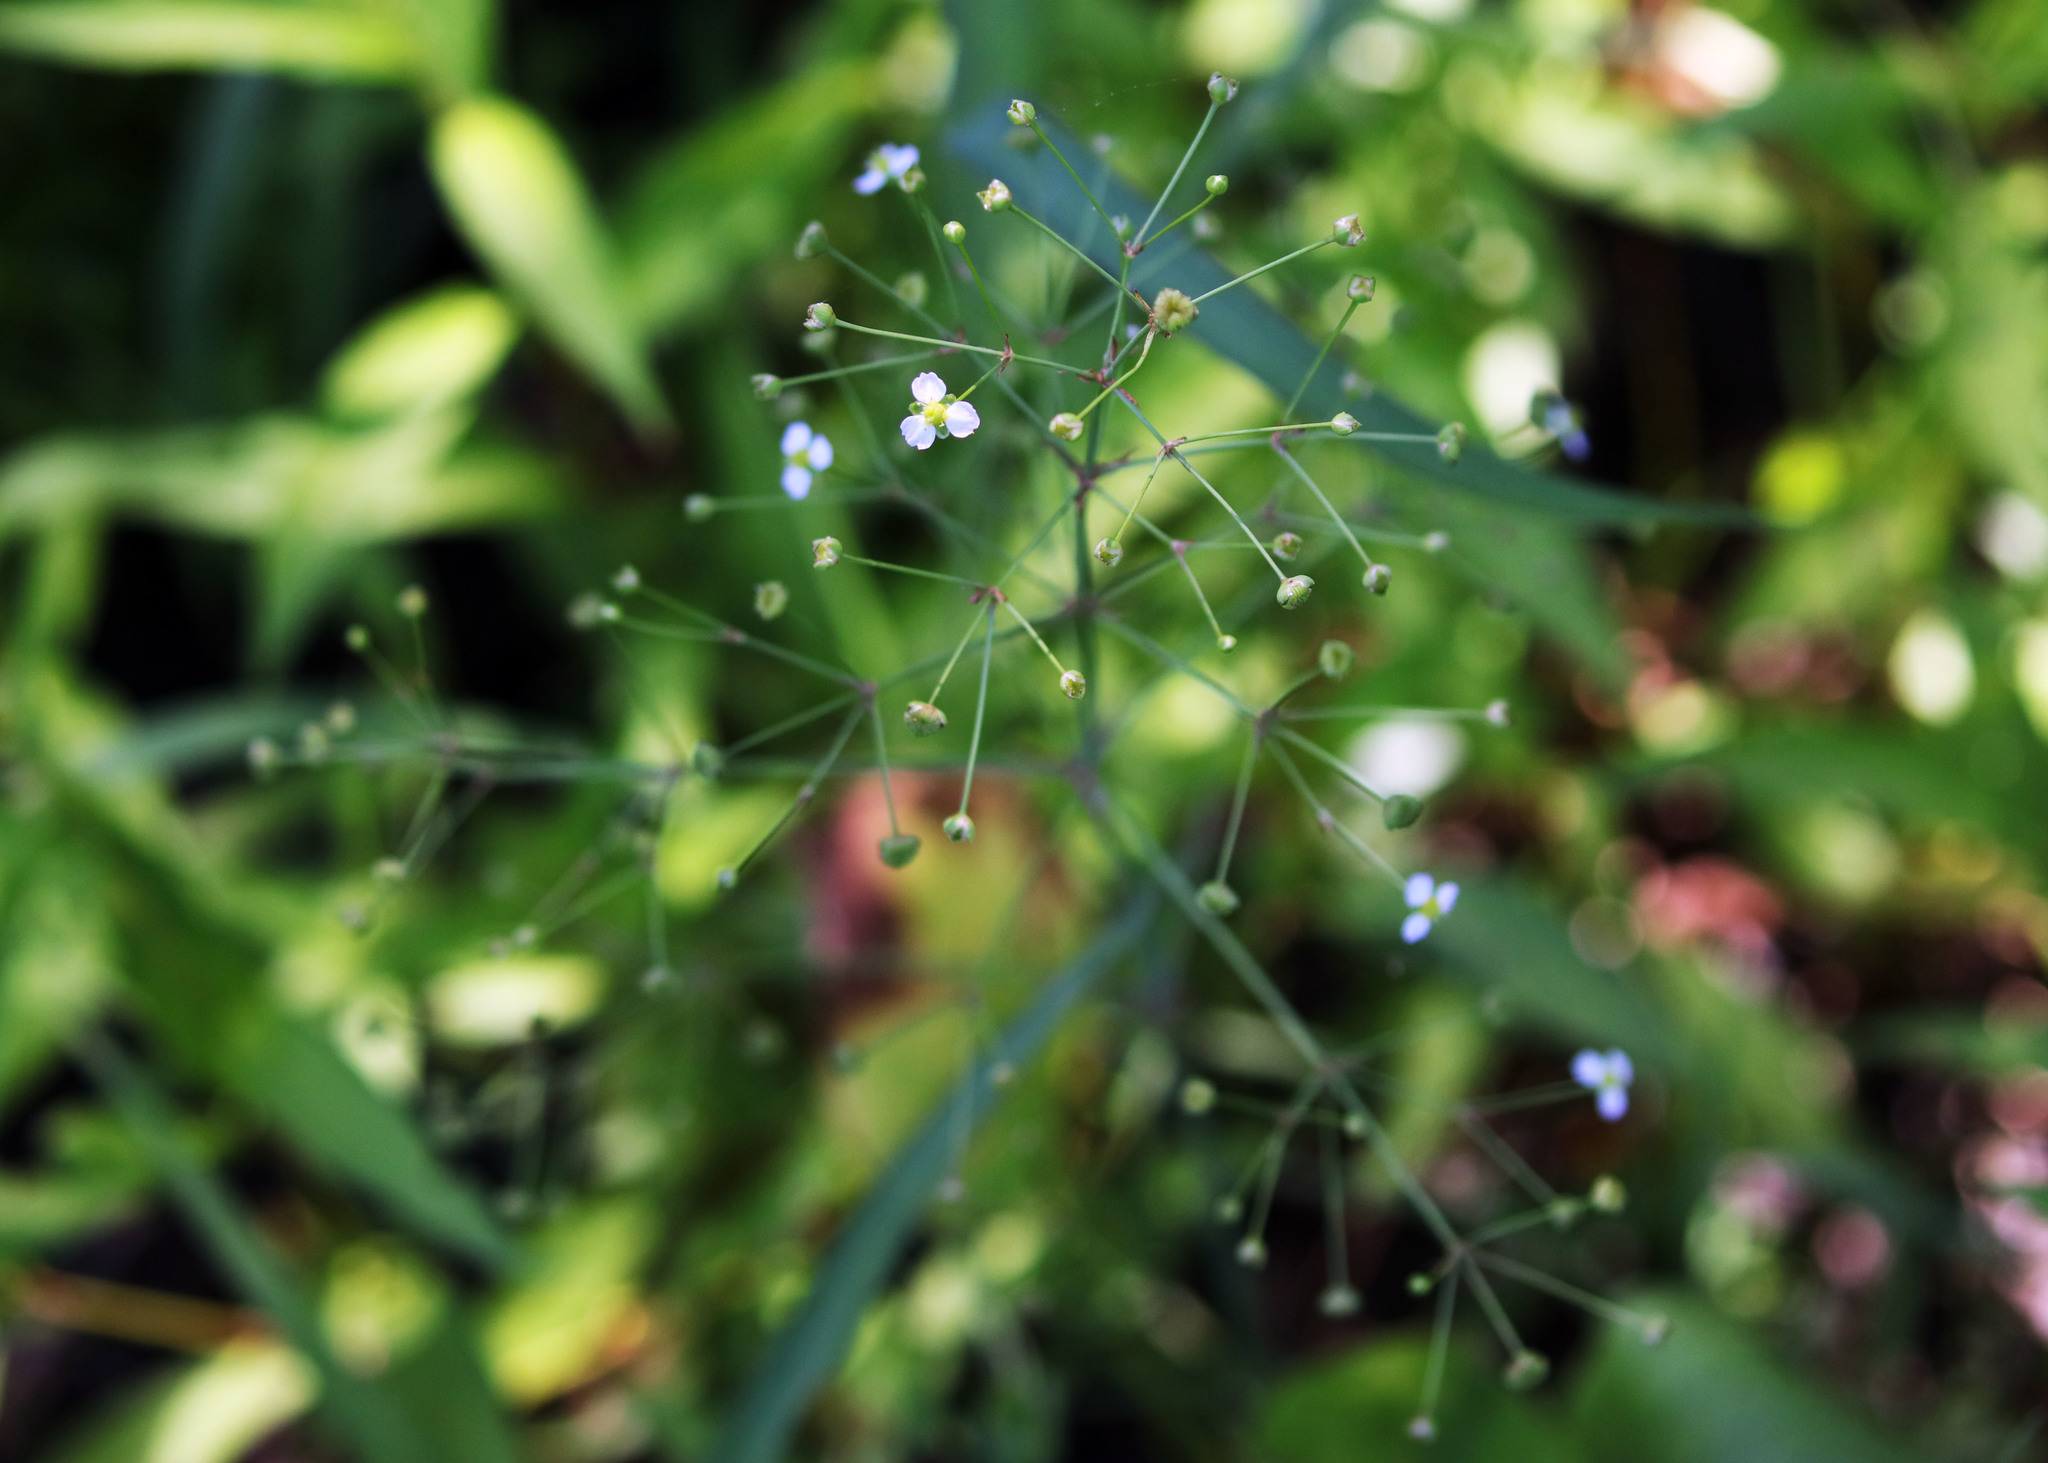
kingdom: Plantae
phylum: Tracheophyta
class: Liliopsida
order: Alismatales
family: Alismataceae
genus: Alisma
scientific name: Alisma triviale
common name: Northern water-plantain
